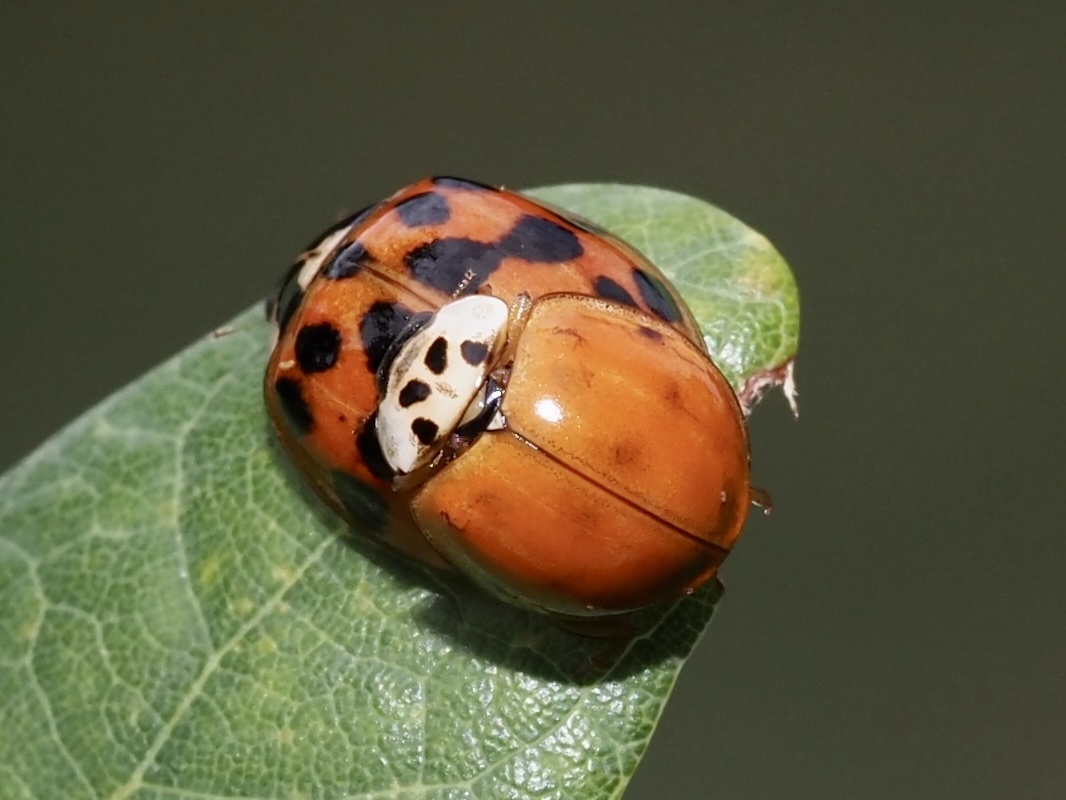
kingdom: Animalia
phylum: Arthropoda
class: Insecta
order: Coleoptera
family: Coccinellidae
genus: Harmonia
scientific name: Harmonia axyridis
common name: Harlequin ladybird
